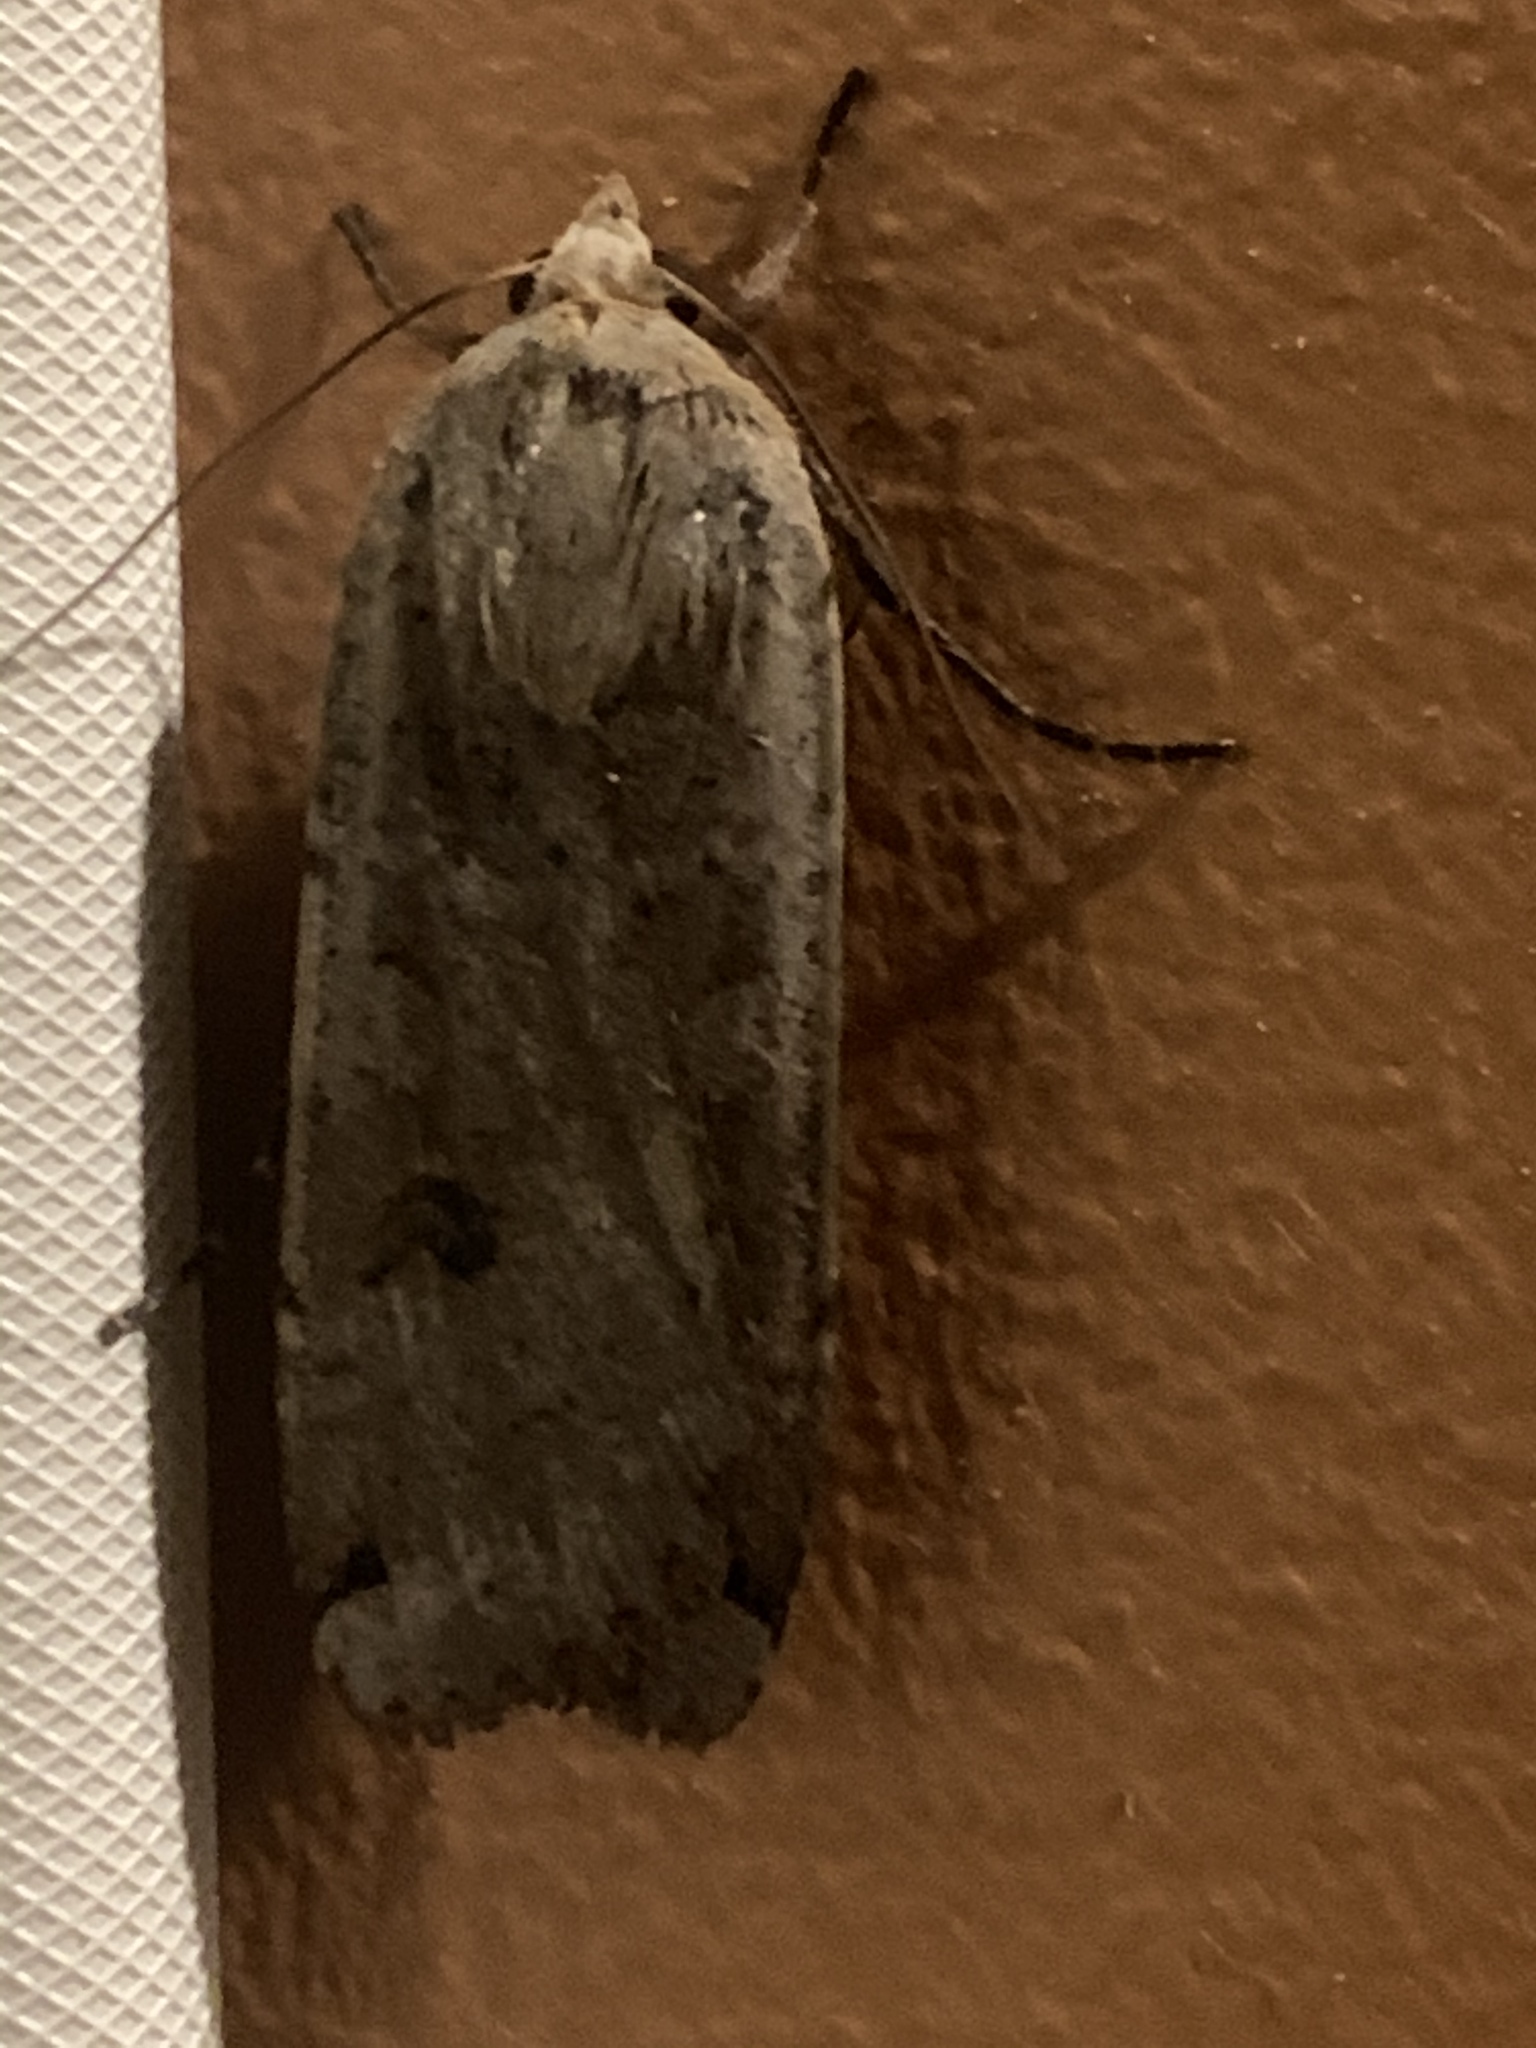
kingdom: Animalia
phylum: Arthropoda
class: Insecta
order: Lepidoptera
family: Noctuidae
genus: Noctua
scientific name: Noctua pronuba
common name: Large yellow underwing
